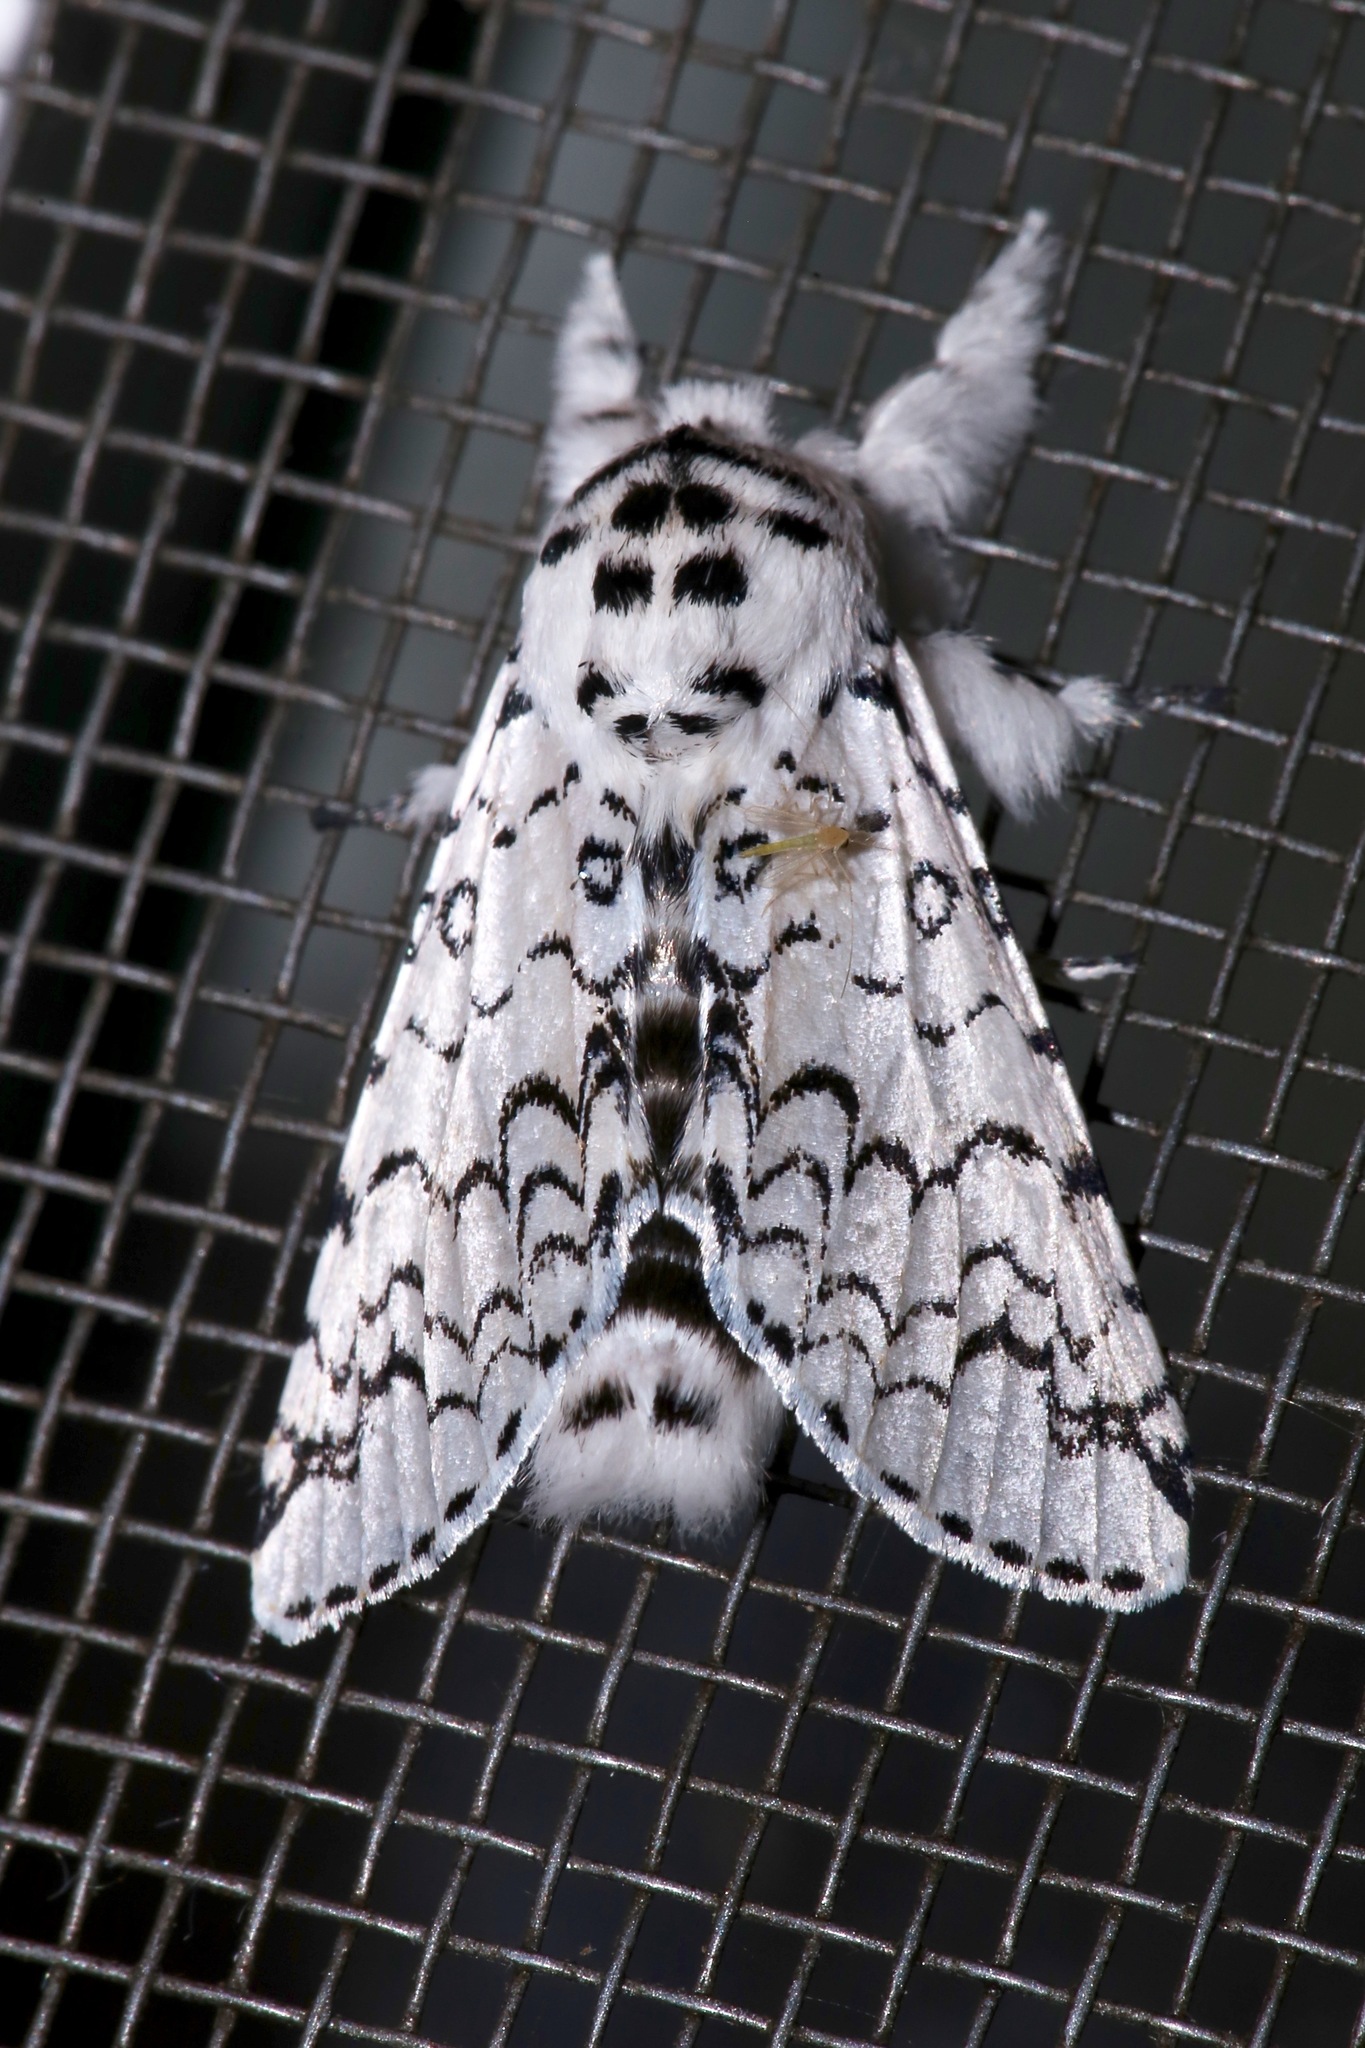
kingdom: Animalia
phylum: Arthropoda
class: Insecta
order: Lepidoptera
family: Notodontidae
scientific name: Notodontidae
